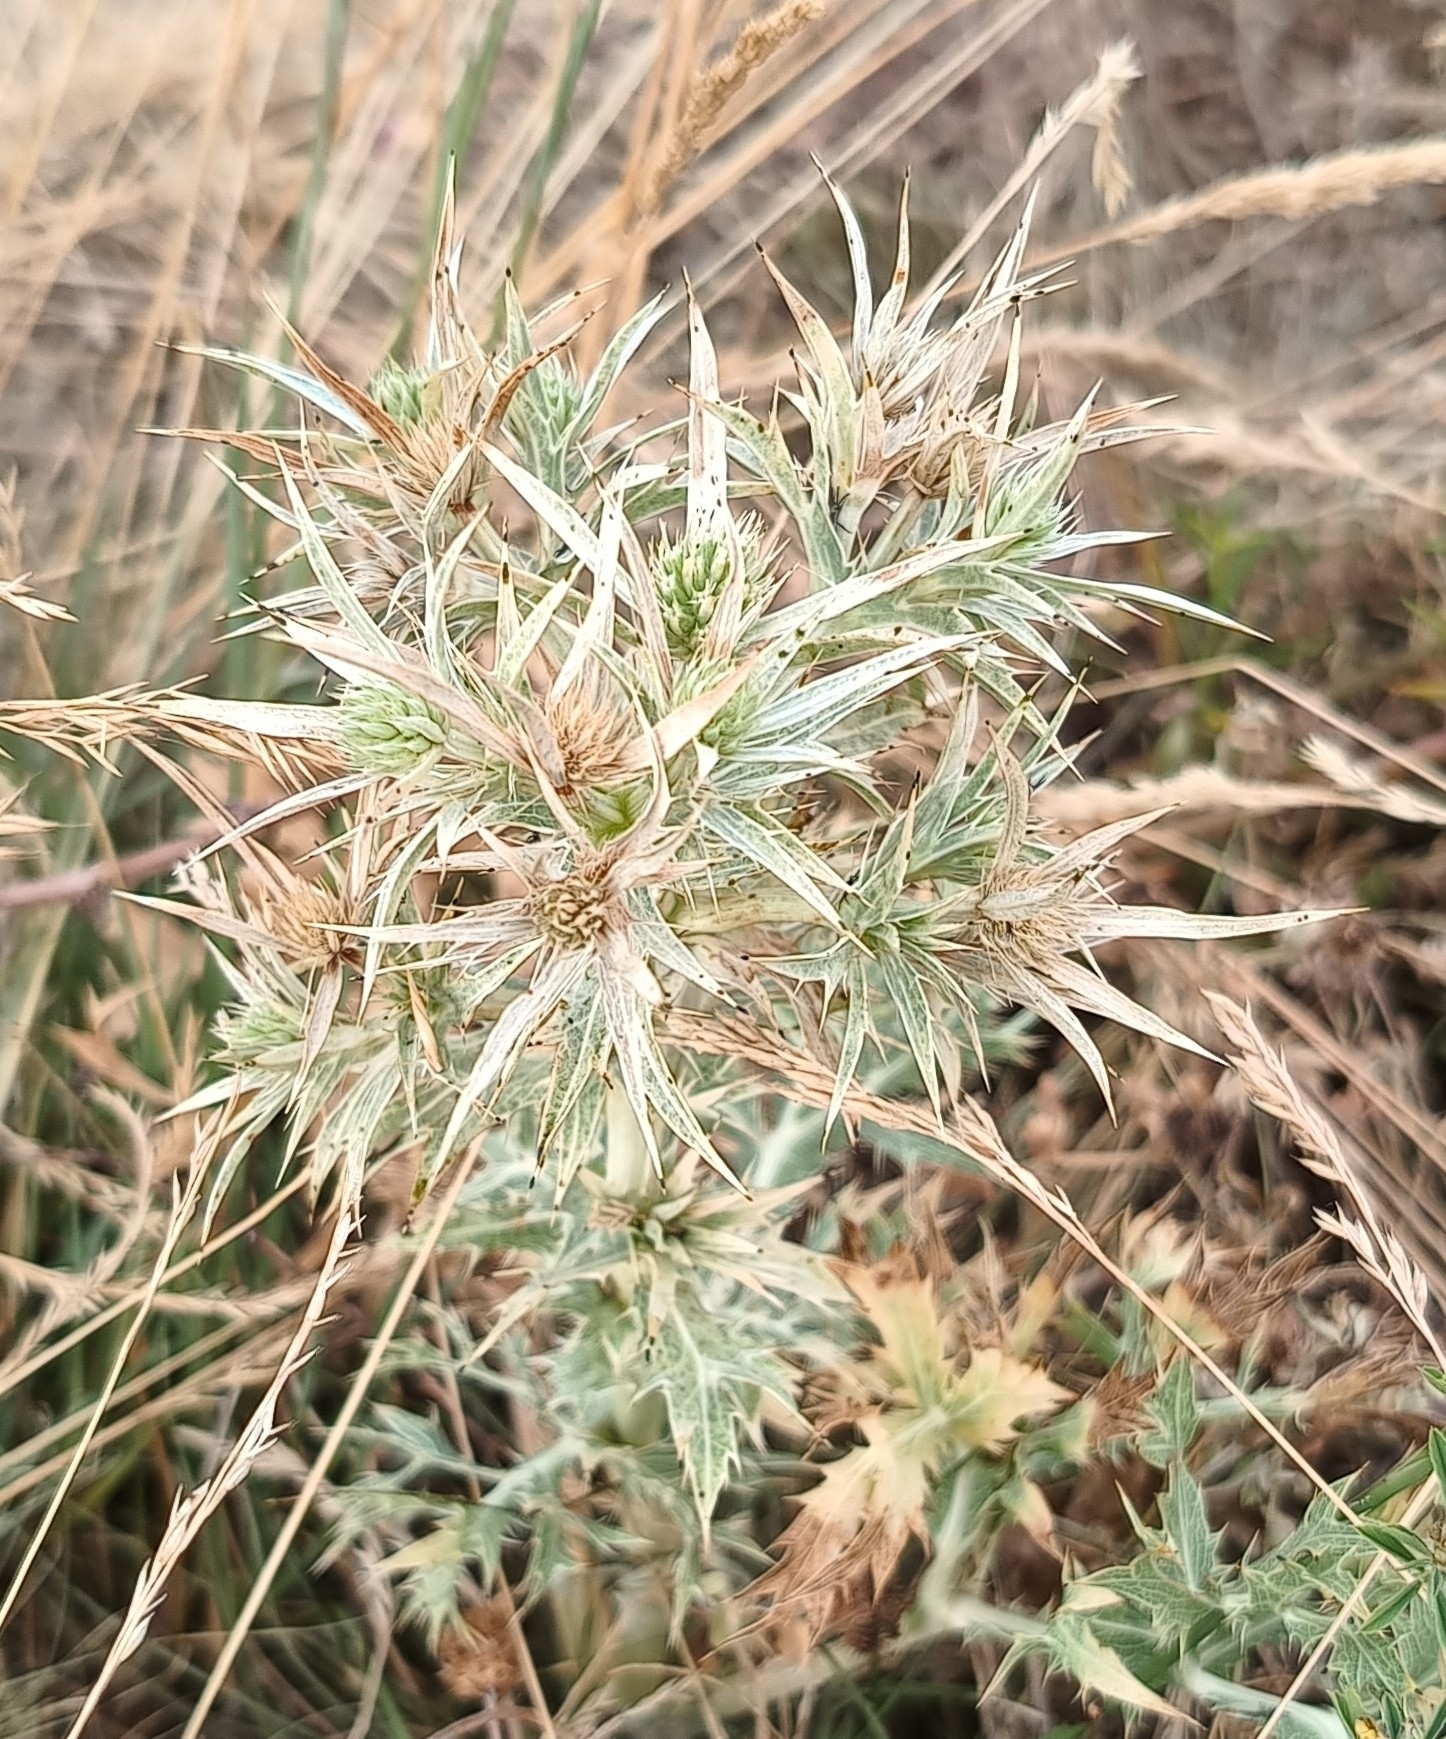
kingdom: Plantae
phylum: Tracheophyta
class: Magnoliopsida
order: Apiales
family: Apiaceae
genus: Eryngium
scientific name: Eryngium campestre
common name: Field eryngo
